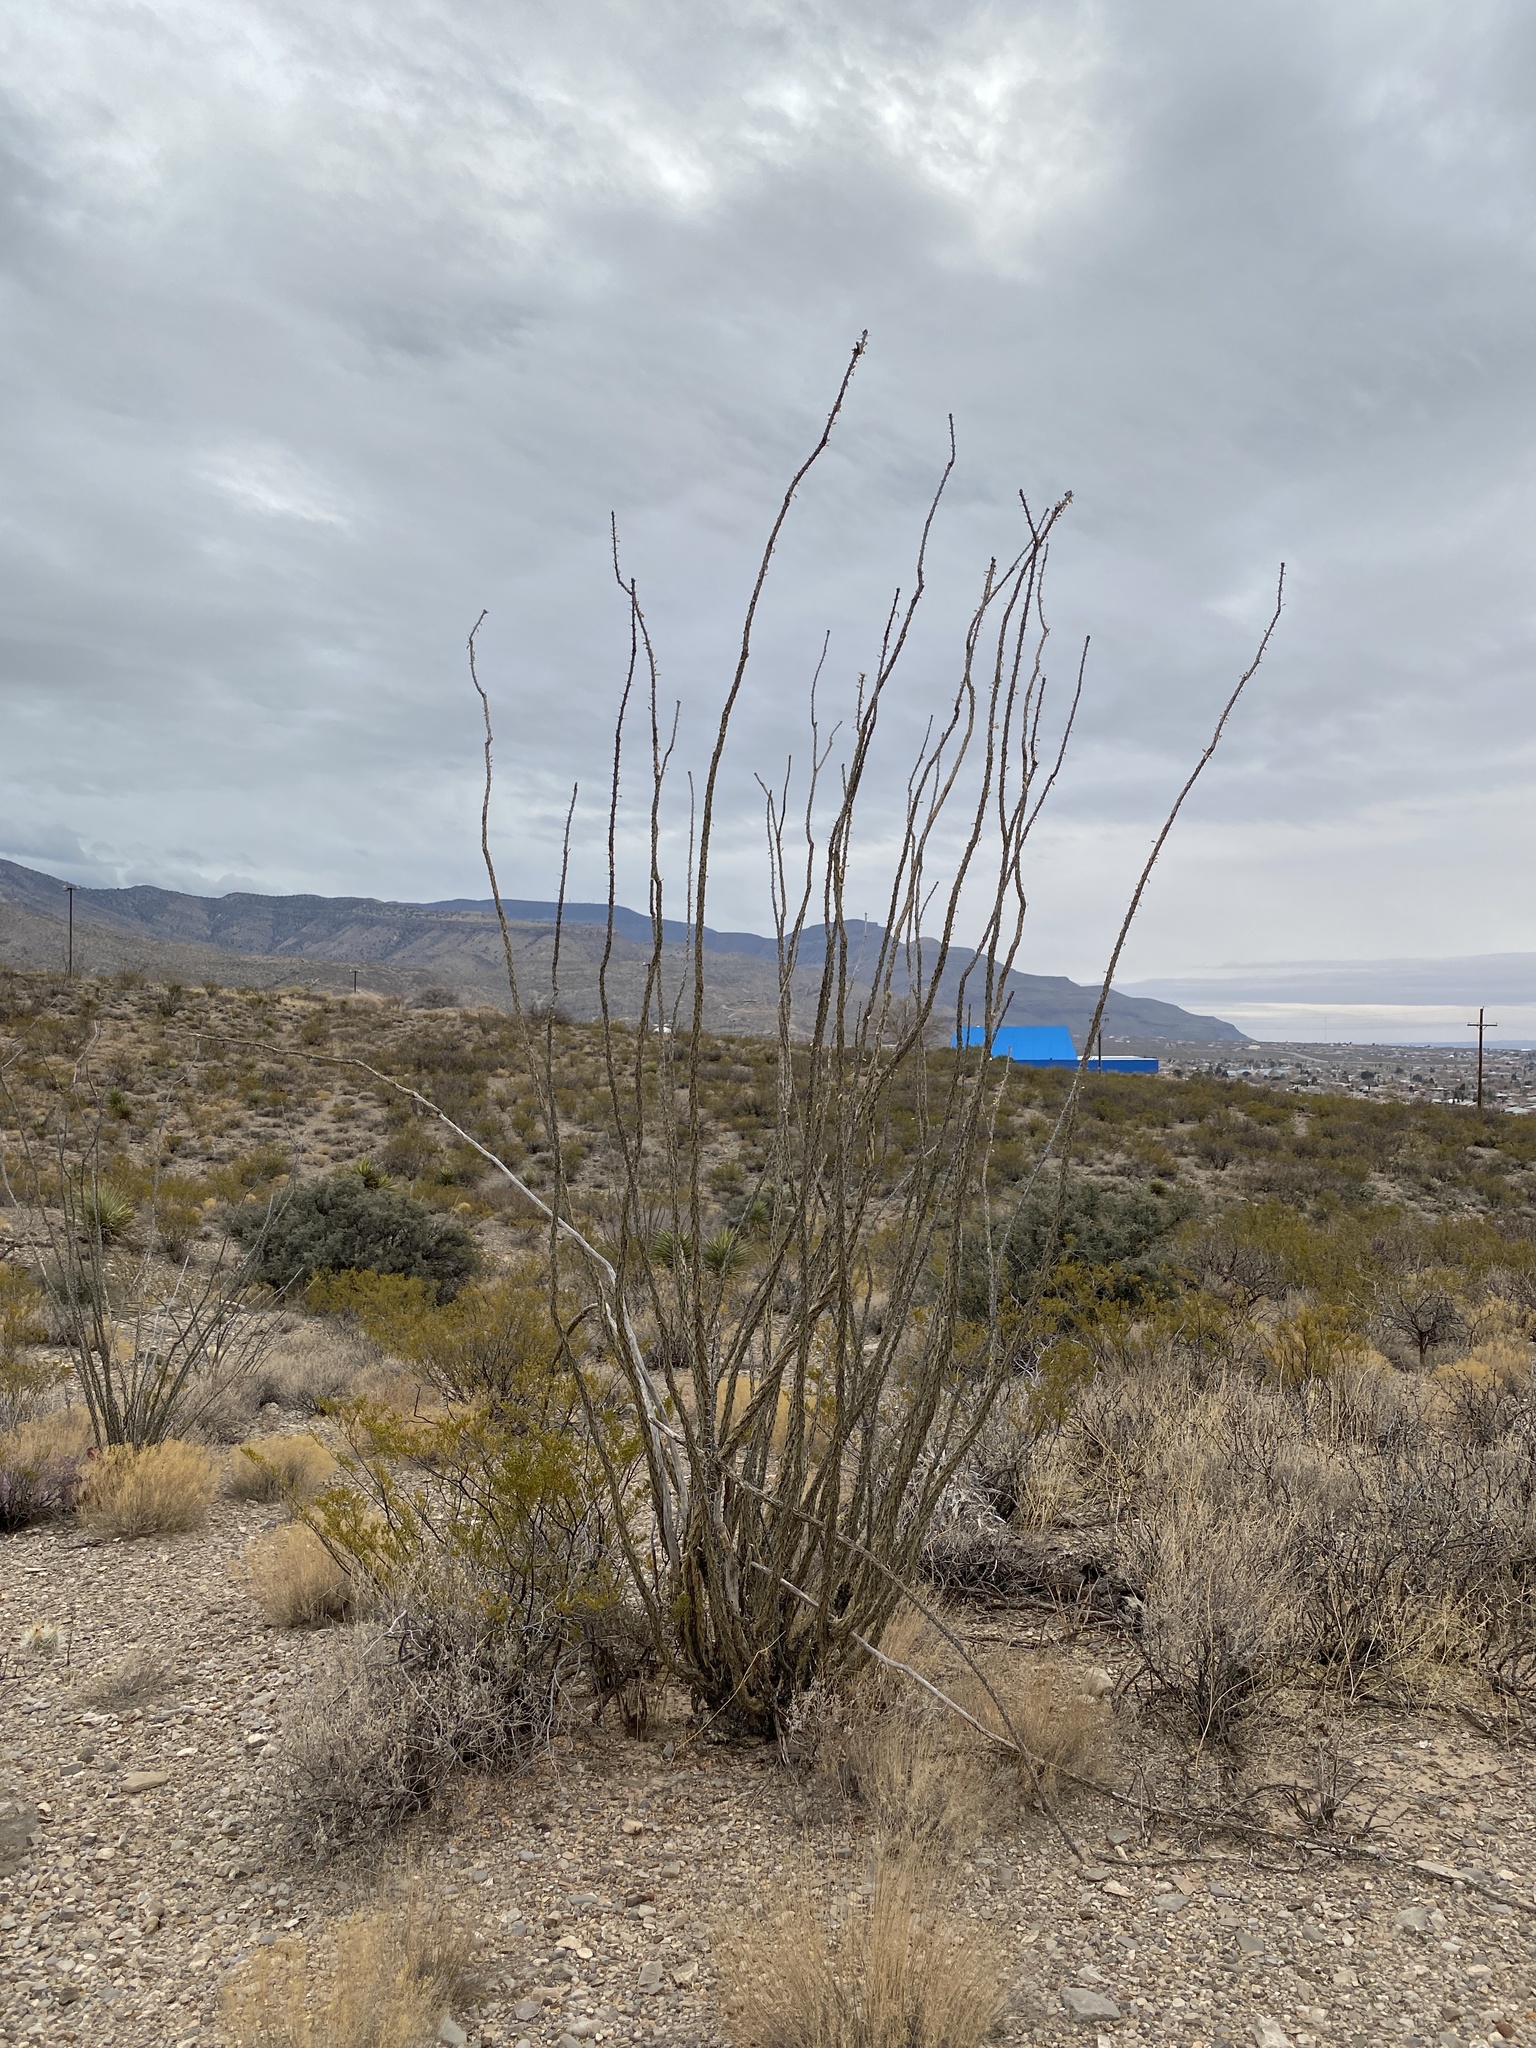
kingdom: Plantae
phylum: Tracheophyta
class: Magnoliopsida
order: Ericales
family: Fouquieriaceae
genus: Fouquieria
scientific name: Fouquieria splendens
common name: Vine-cactus
